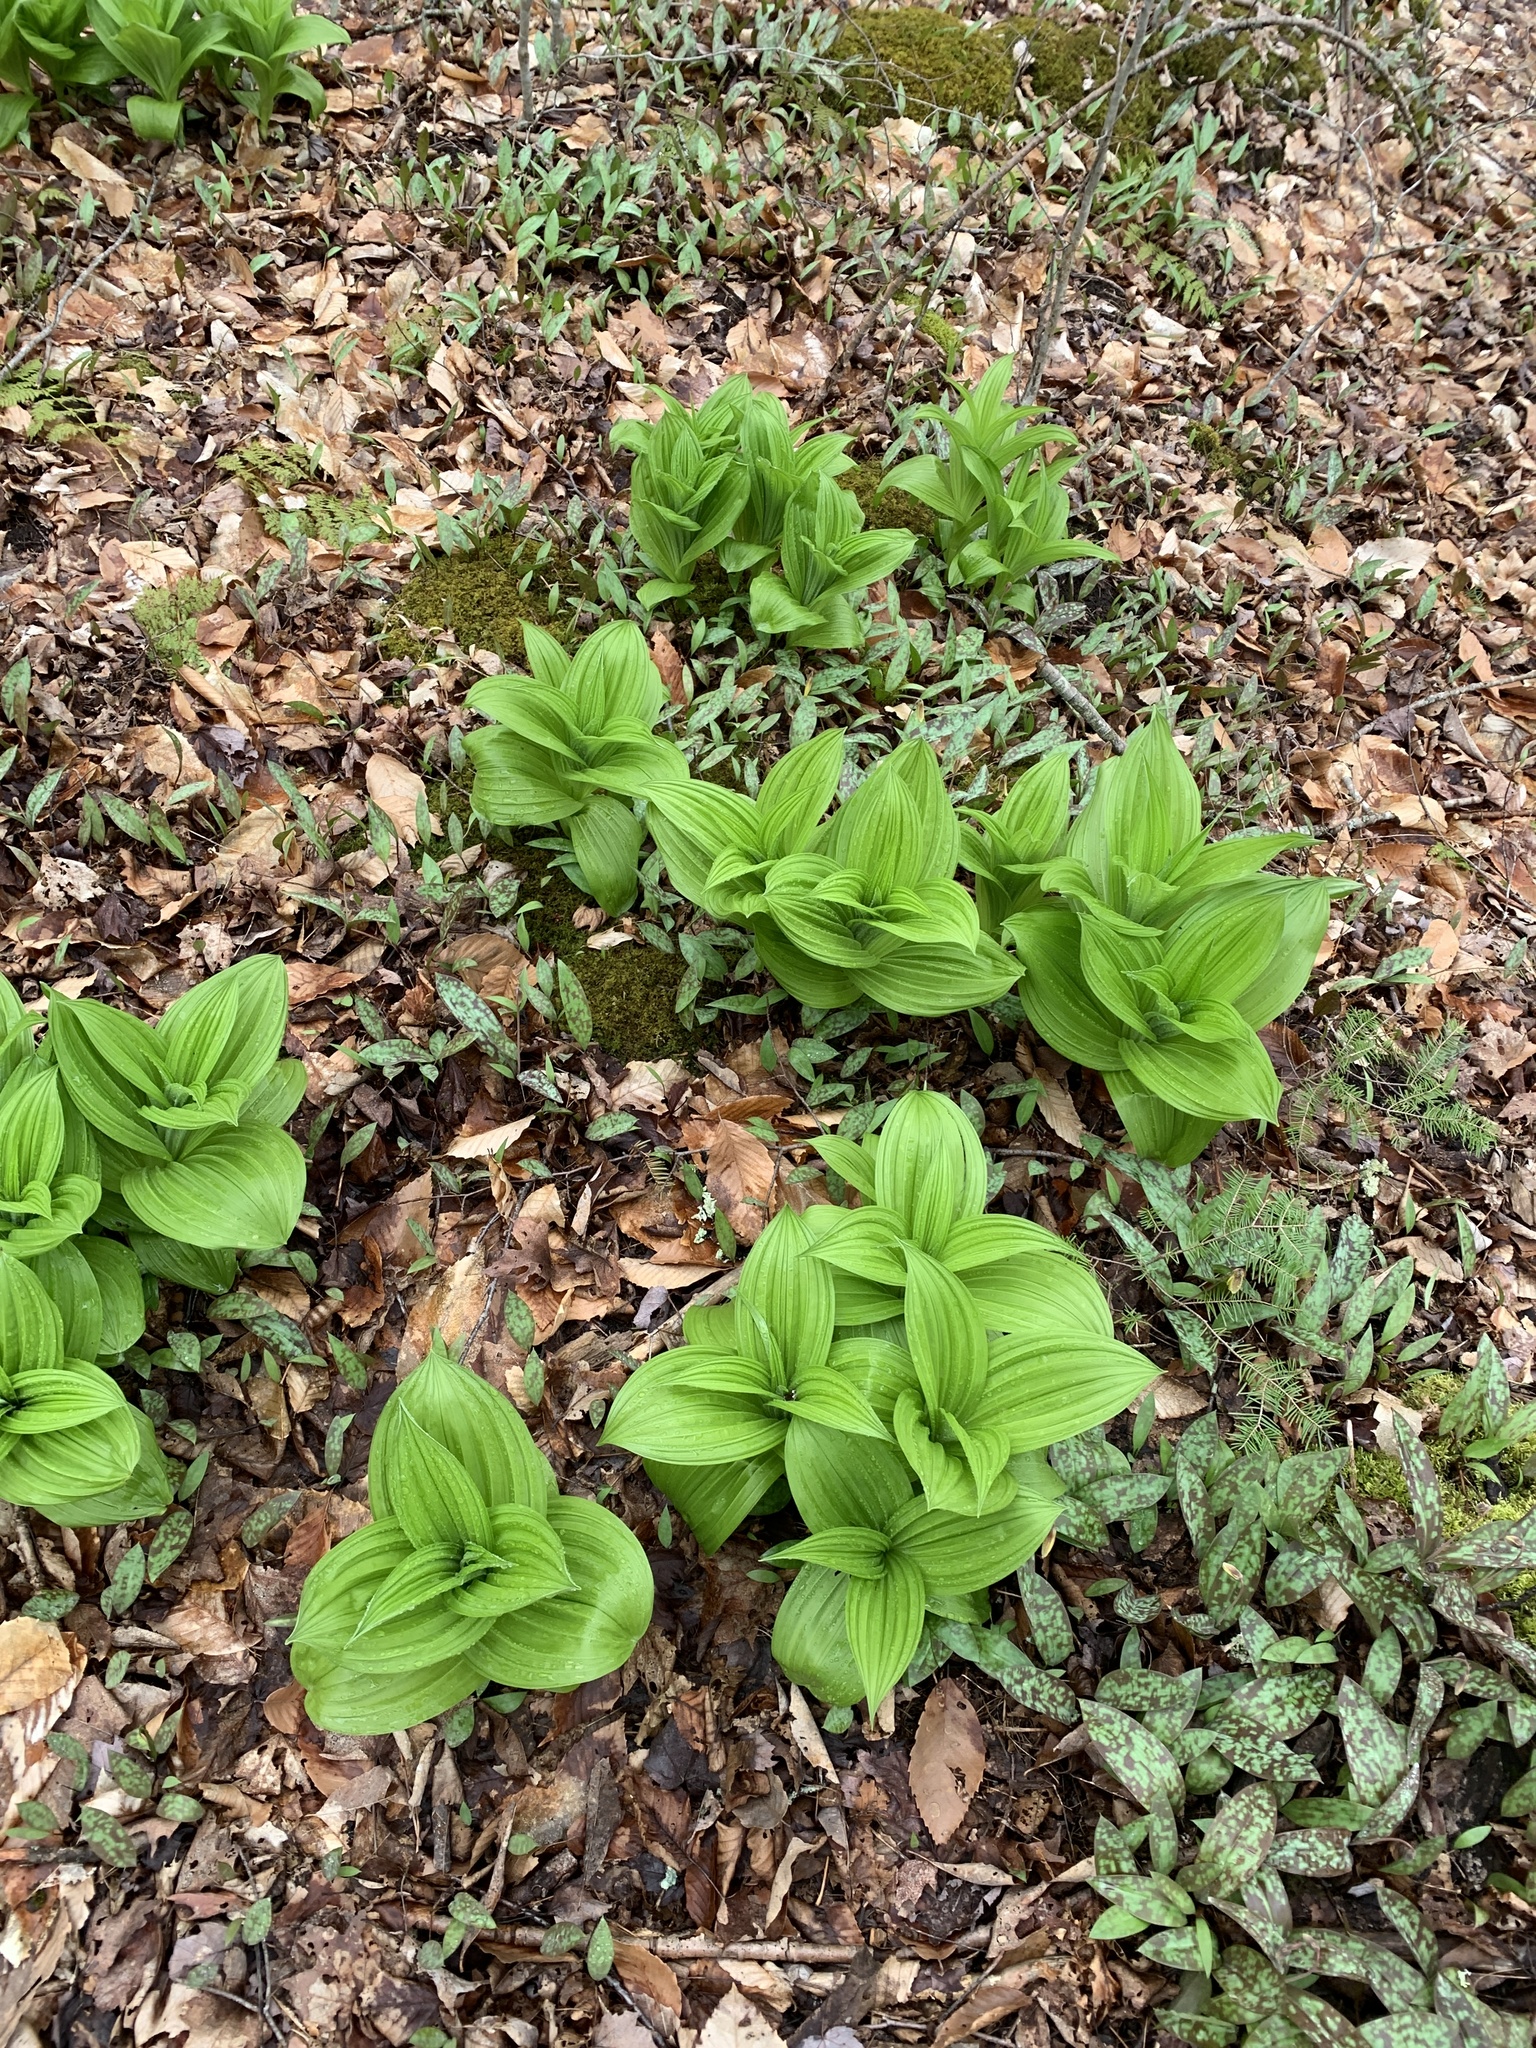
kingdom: Plantae
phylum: Tracheophyta
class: Liliopsida
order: Liliales
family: Melanthiaceae
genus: Veratrum
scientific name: Veratrum viride
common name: American false hellebore
